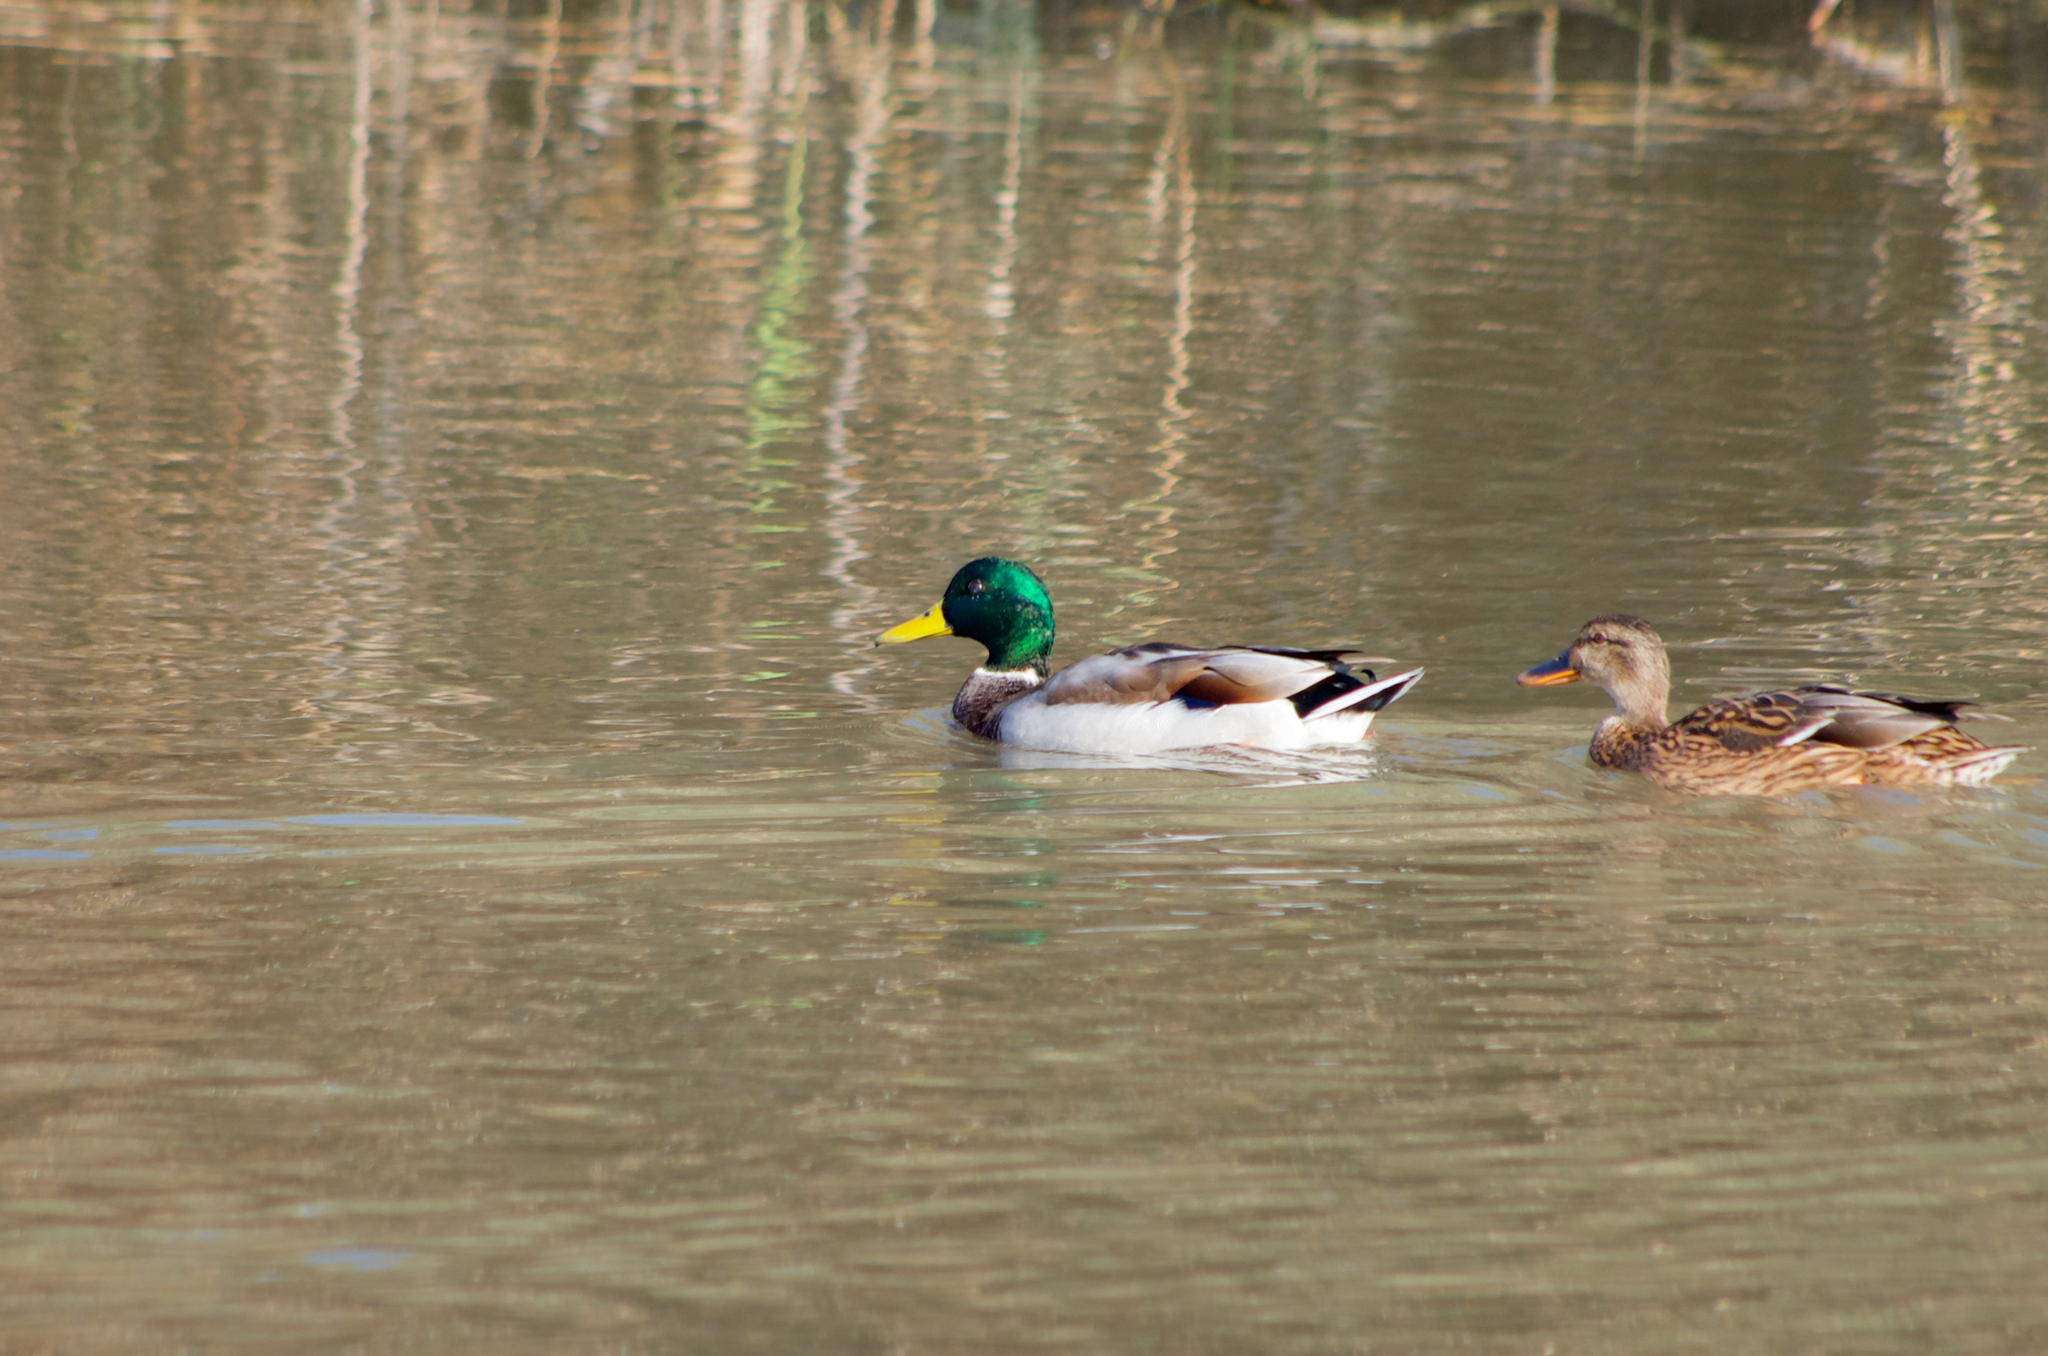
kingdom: Animalia
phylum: Chordata
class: Aves
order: Anseriformes
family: Anatidae
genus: Anas
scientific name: Anas platyrhynchos
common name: Mallard
